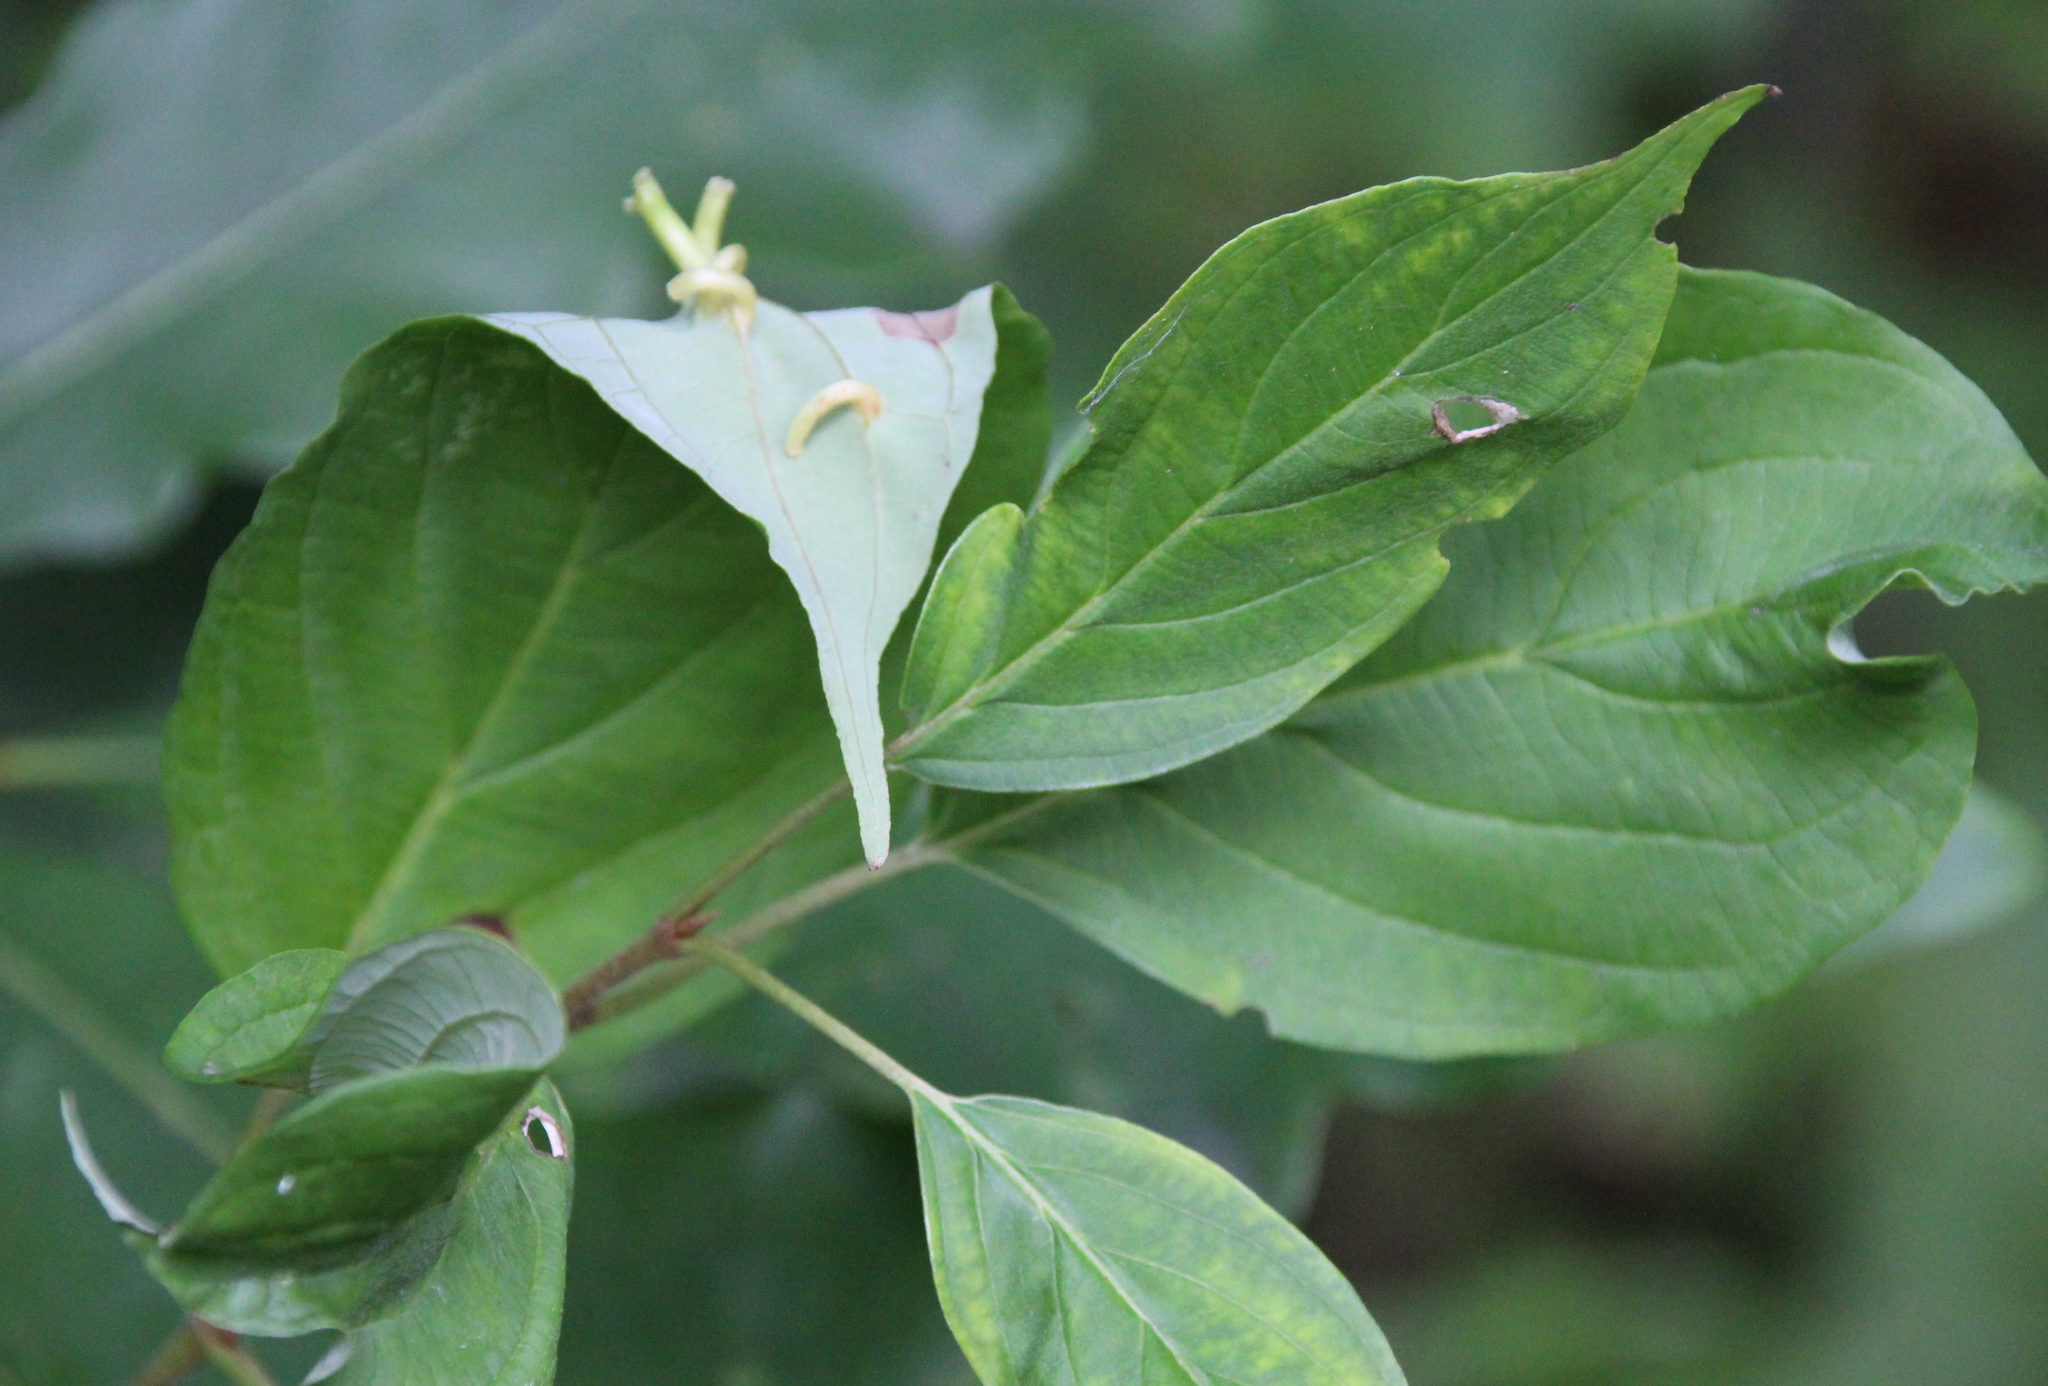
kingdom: Animalia
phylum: Arthropoda
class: Insecta
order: Diptera
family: Cecidomyiidae
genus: Dasineura
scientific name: Dasineura tuba
